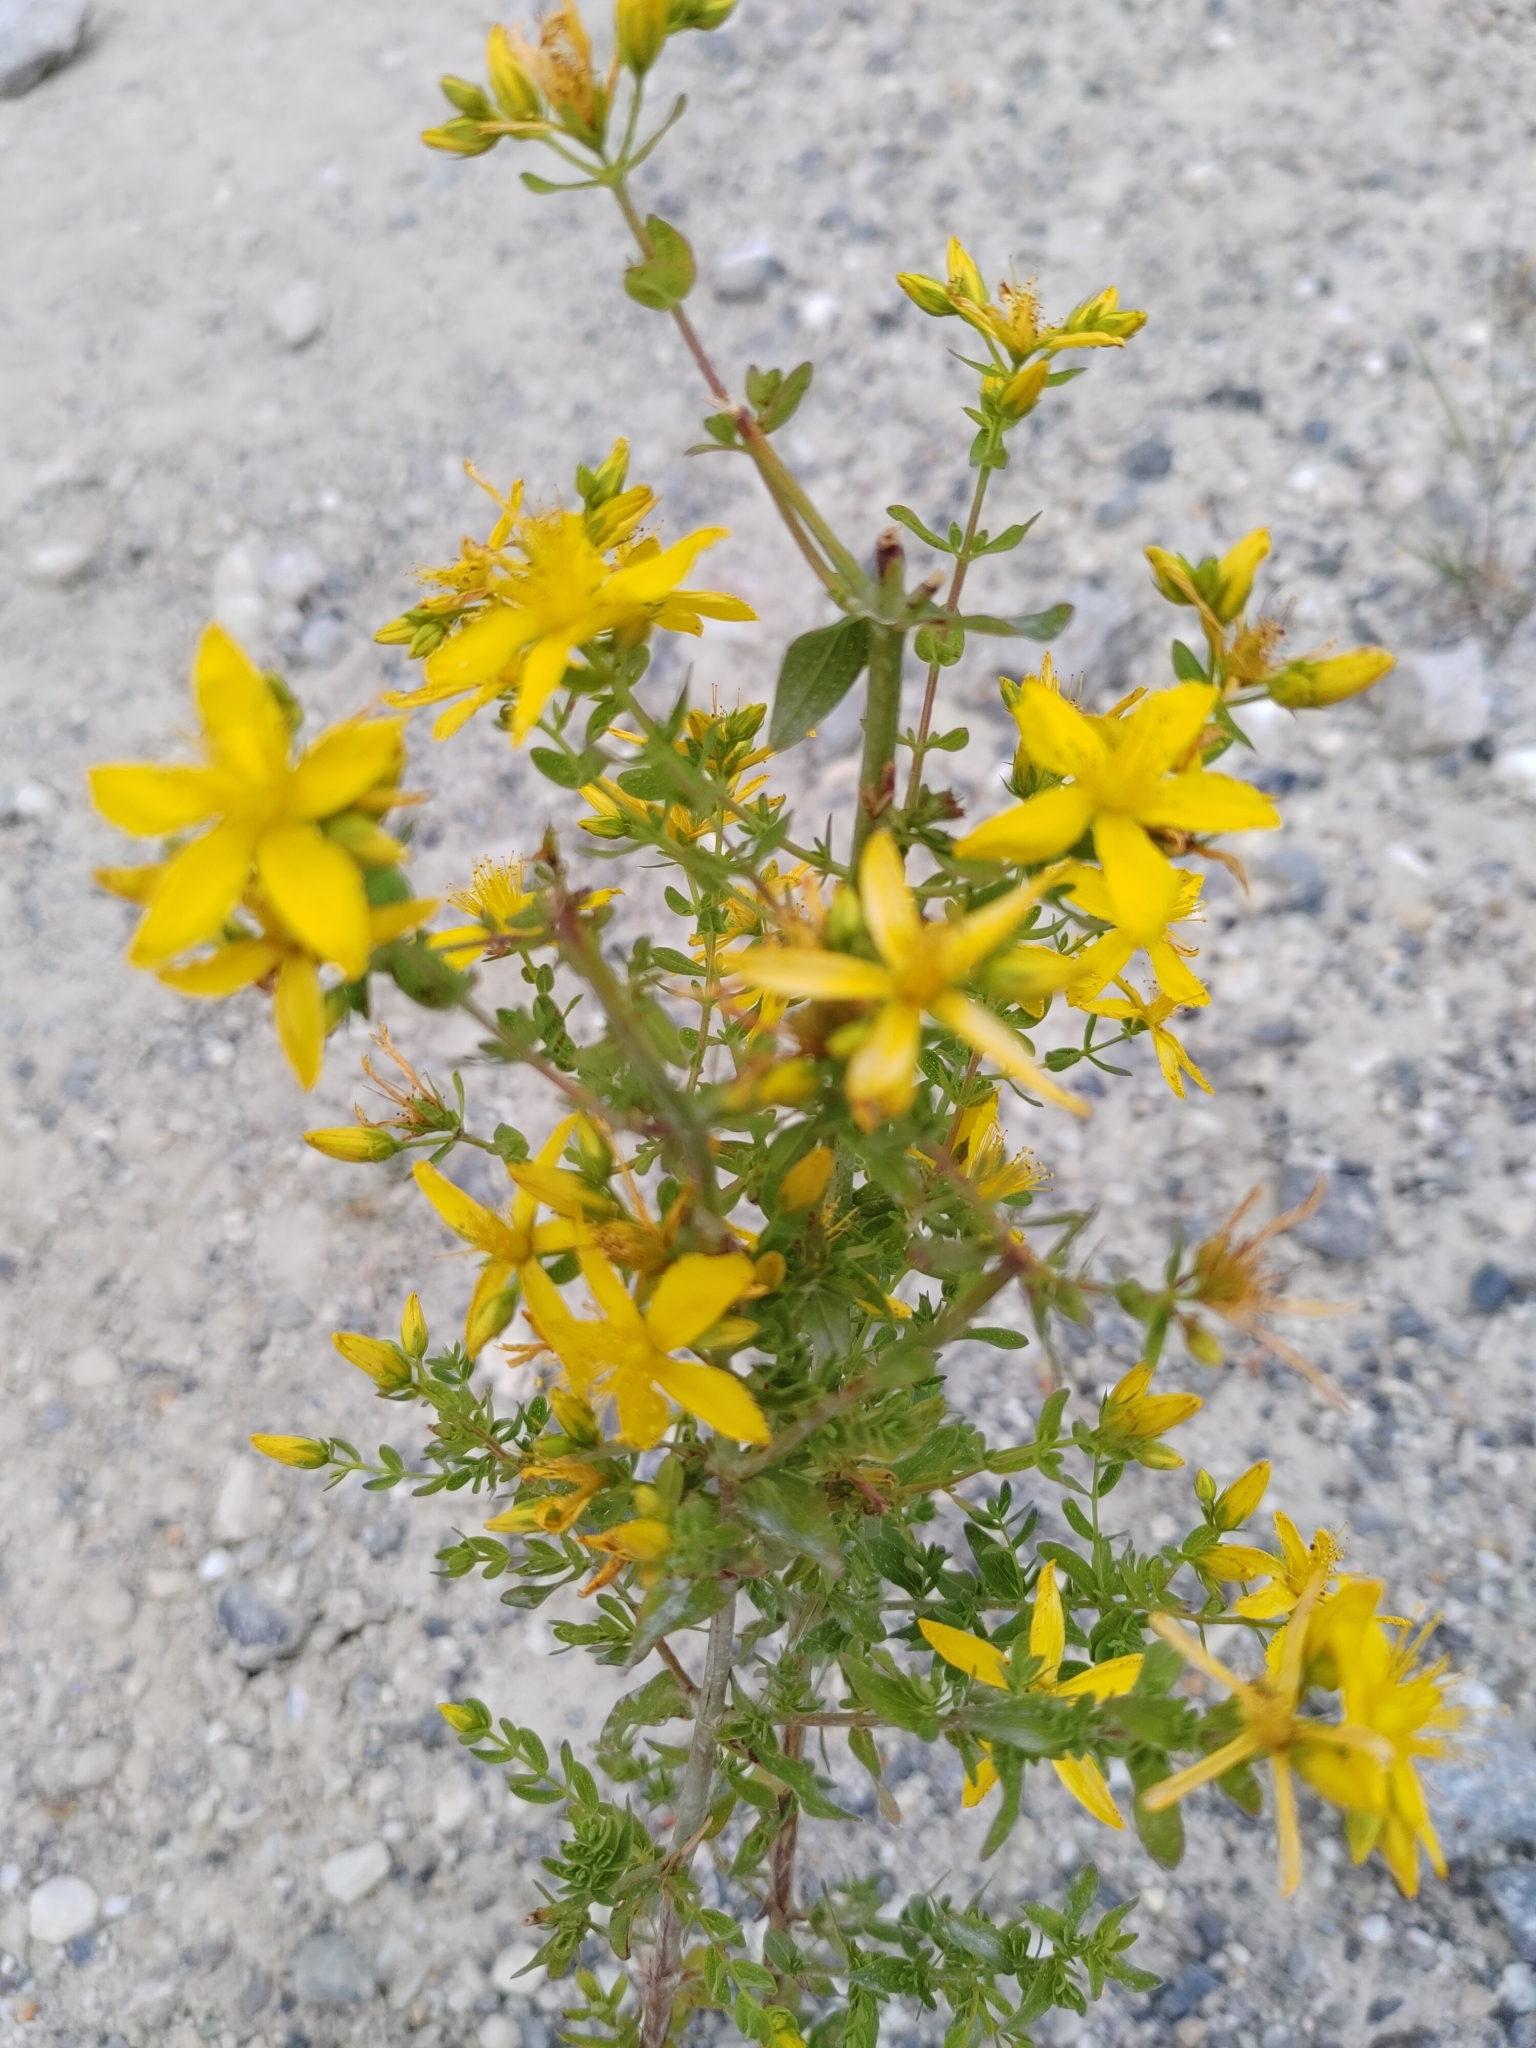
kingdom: Plantae
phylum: Tracheophyta
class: Magnoliopsida
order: Malpighiales
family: Hypericaceae
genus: Hypericum
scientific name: Hypericum perforatum
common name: Common st. johnswort
